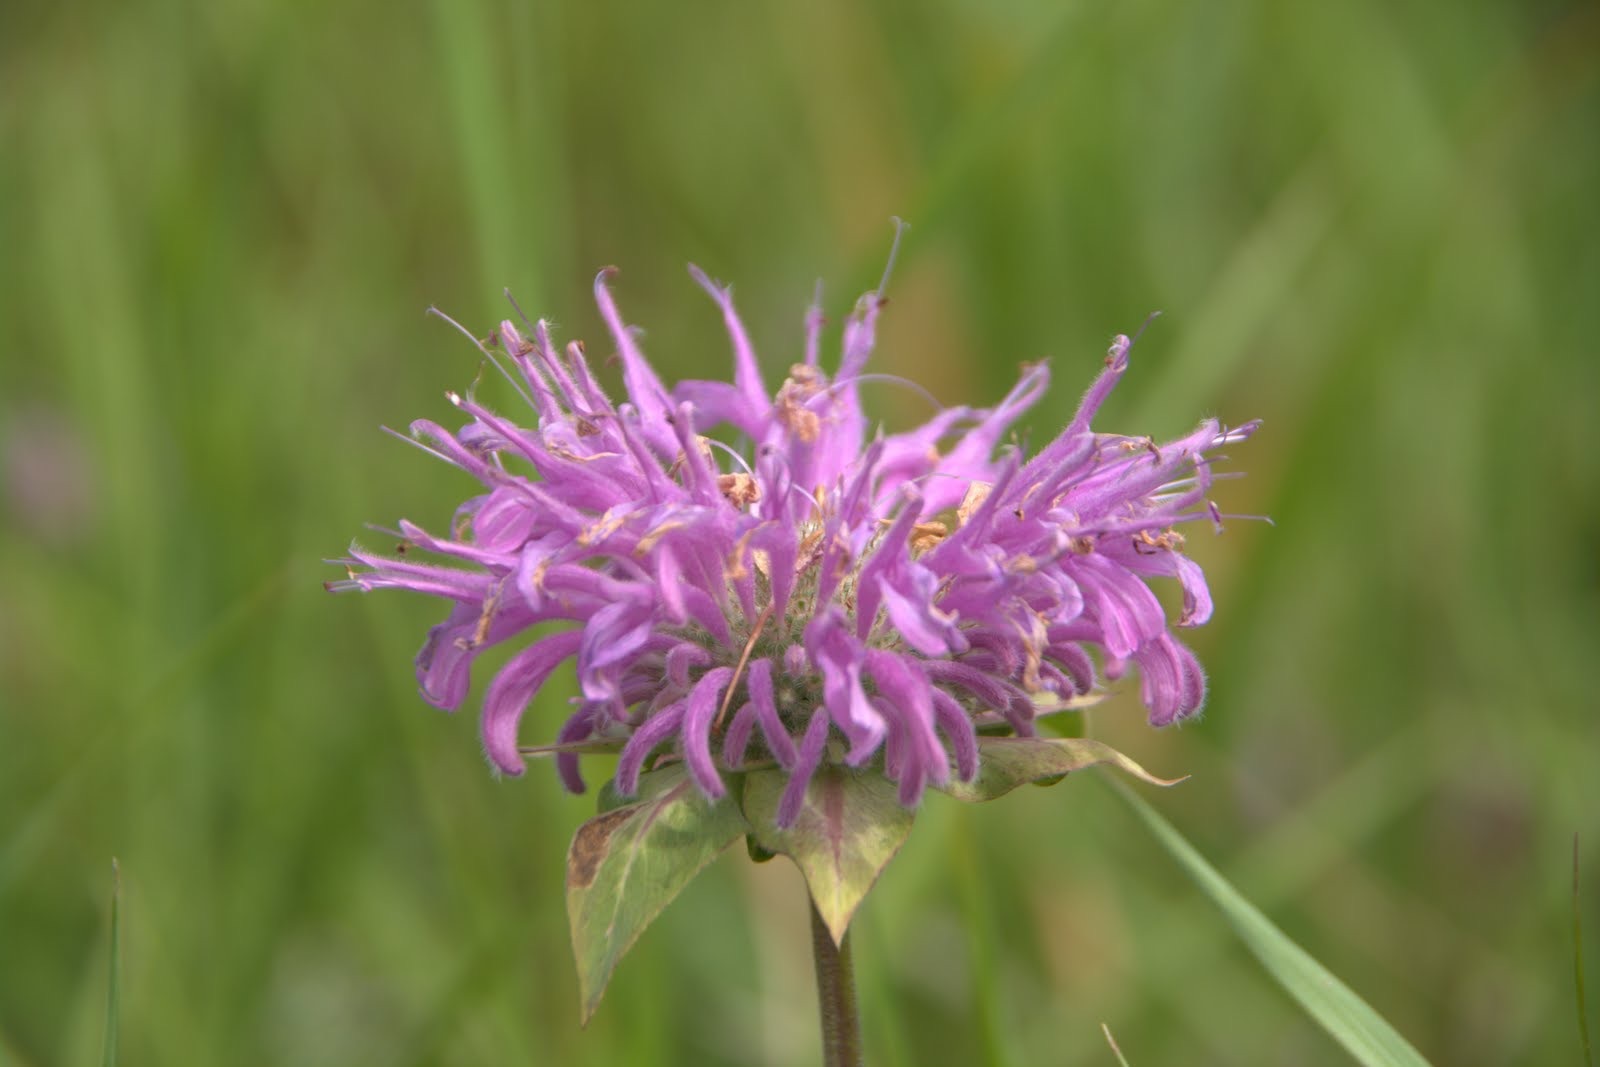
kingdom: Plantae
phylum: Tracheophyta
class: Magnoliopsida
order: Lamiales
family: Lamiaceae
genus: Monarda
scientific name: Monarda fistulosa
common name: Purple beebalm
